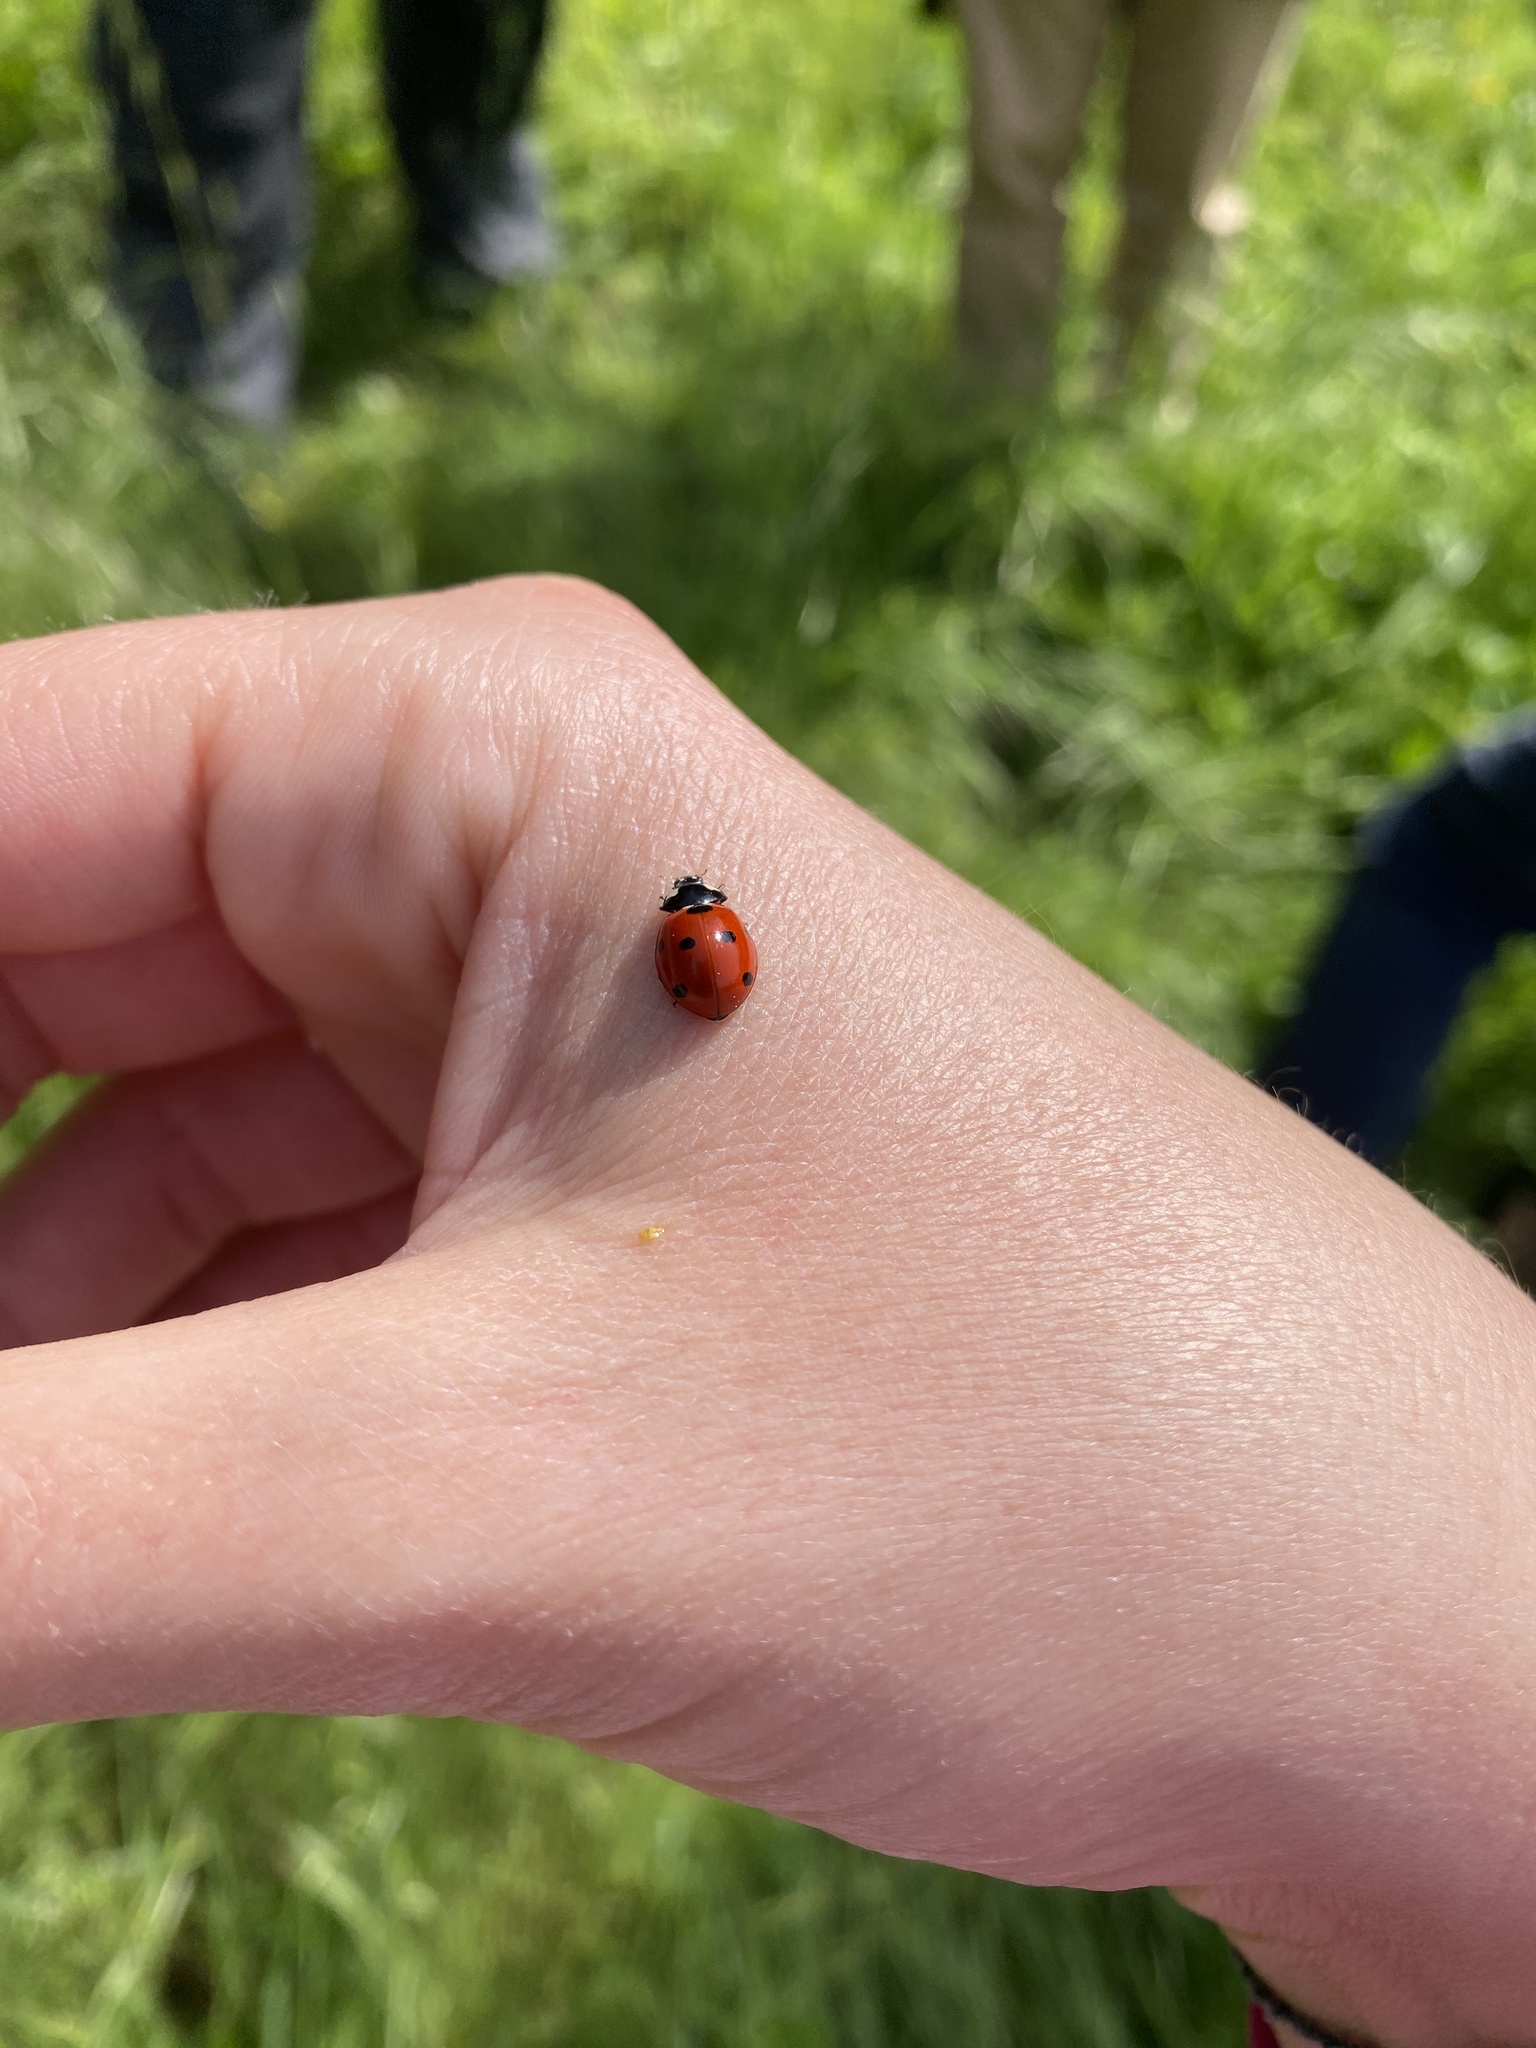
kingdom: Animalia
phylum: Arthropoda
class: Insecta
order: Coleoptera
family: Coccinellidae
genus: Coccinella
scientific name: Coccinella septempunctata
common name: Sevenspotted lady beetle
